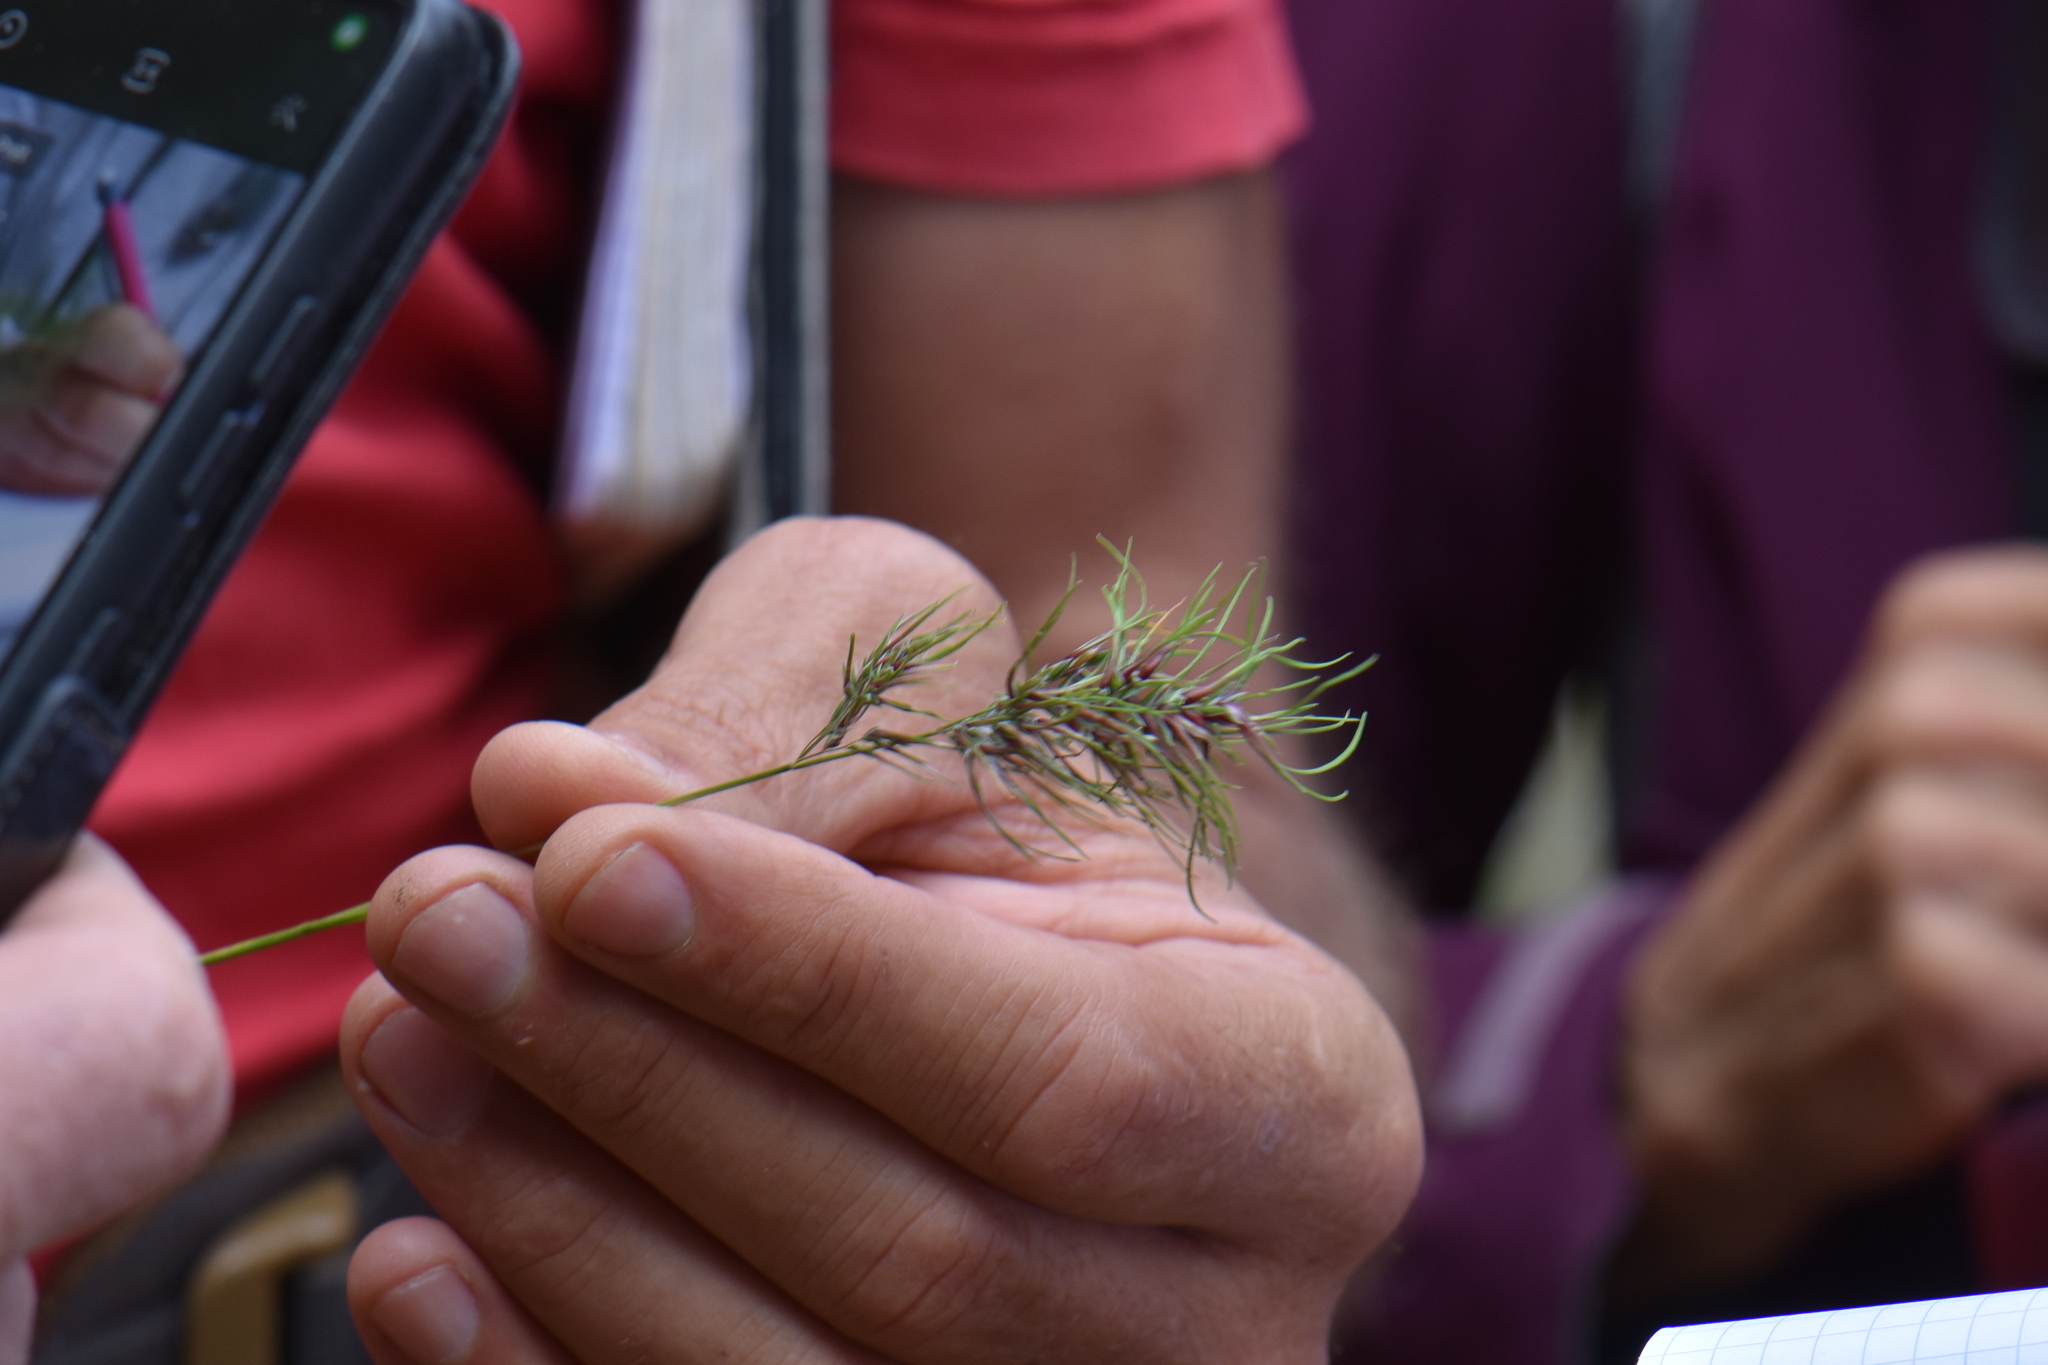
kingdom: Plantae
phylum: Tracheophyta
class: Liliopsida
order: Poales
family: Poaceae
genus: Poa
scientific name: Poa bulbosa
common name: Bulbous bluegrass
